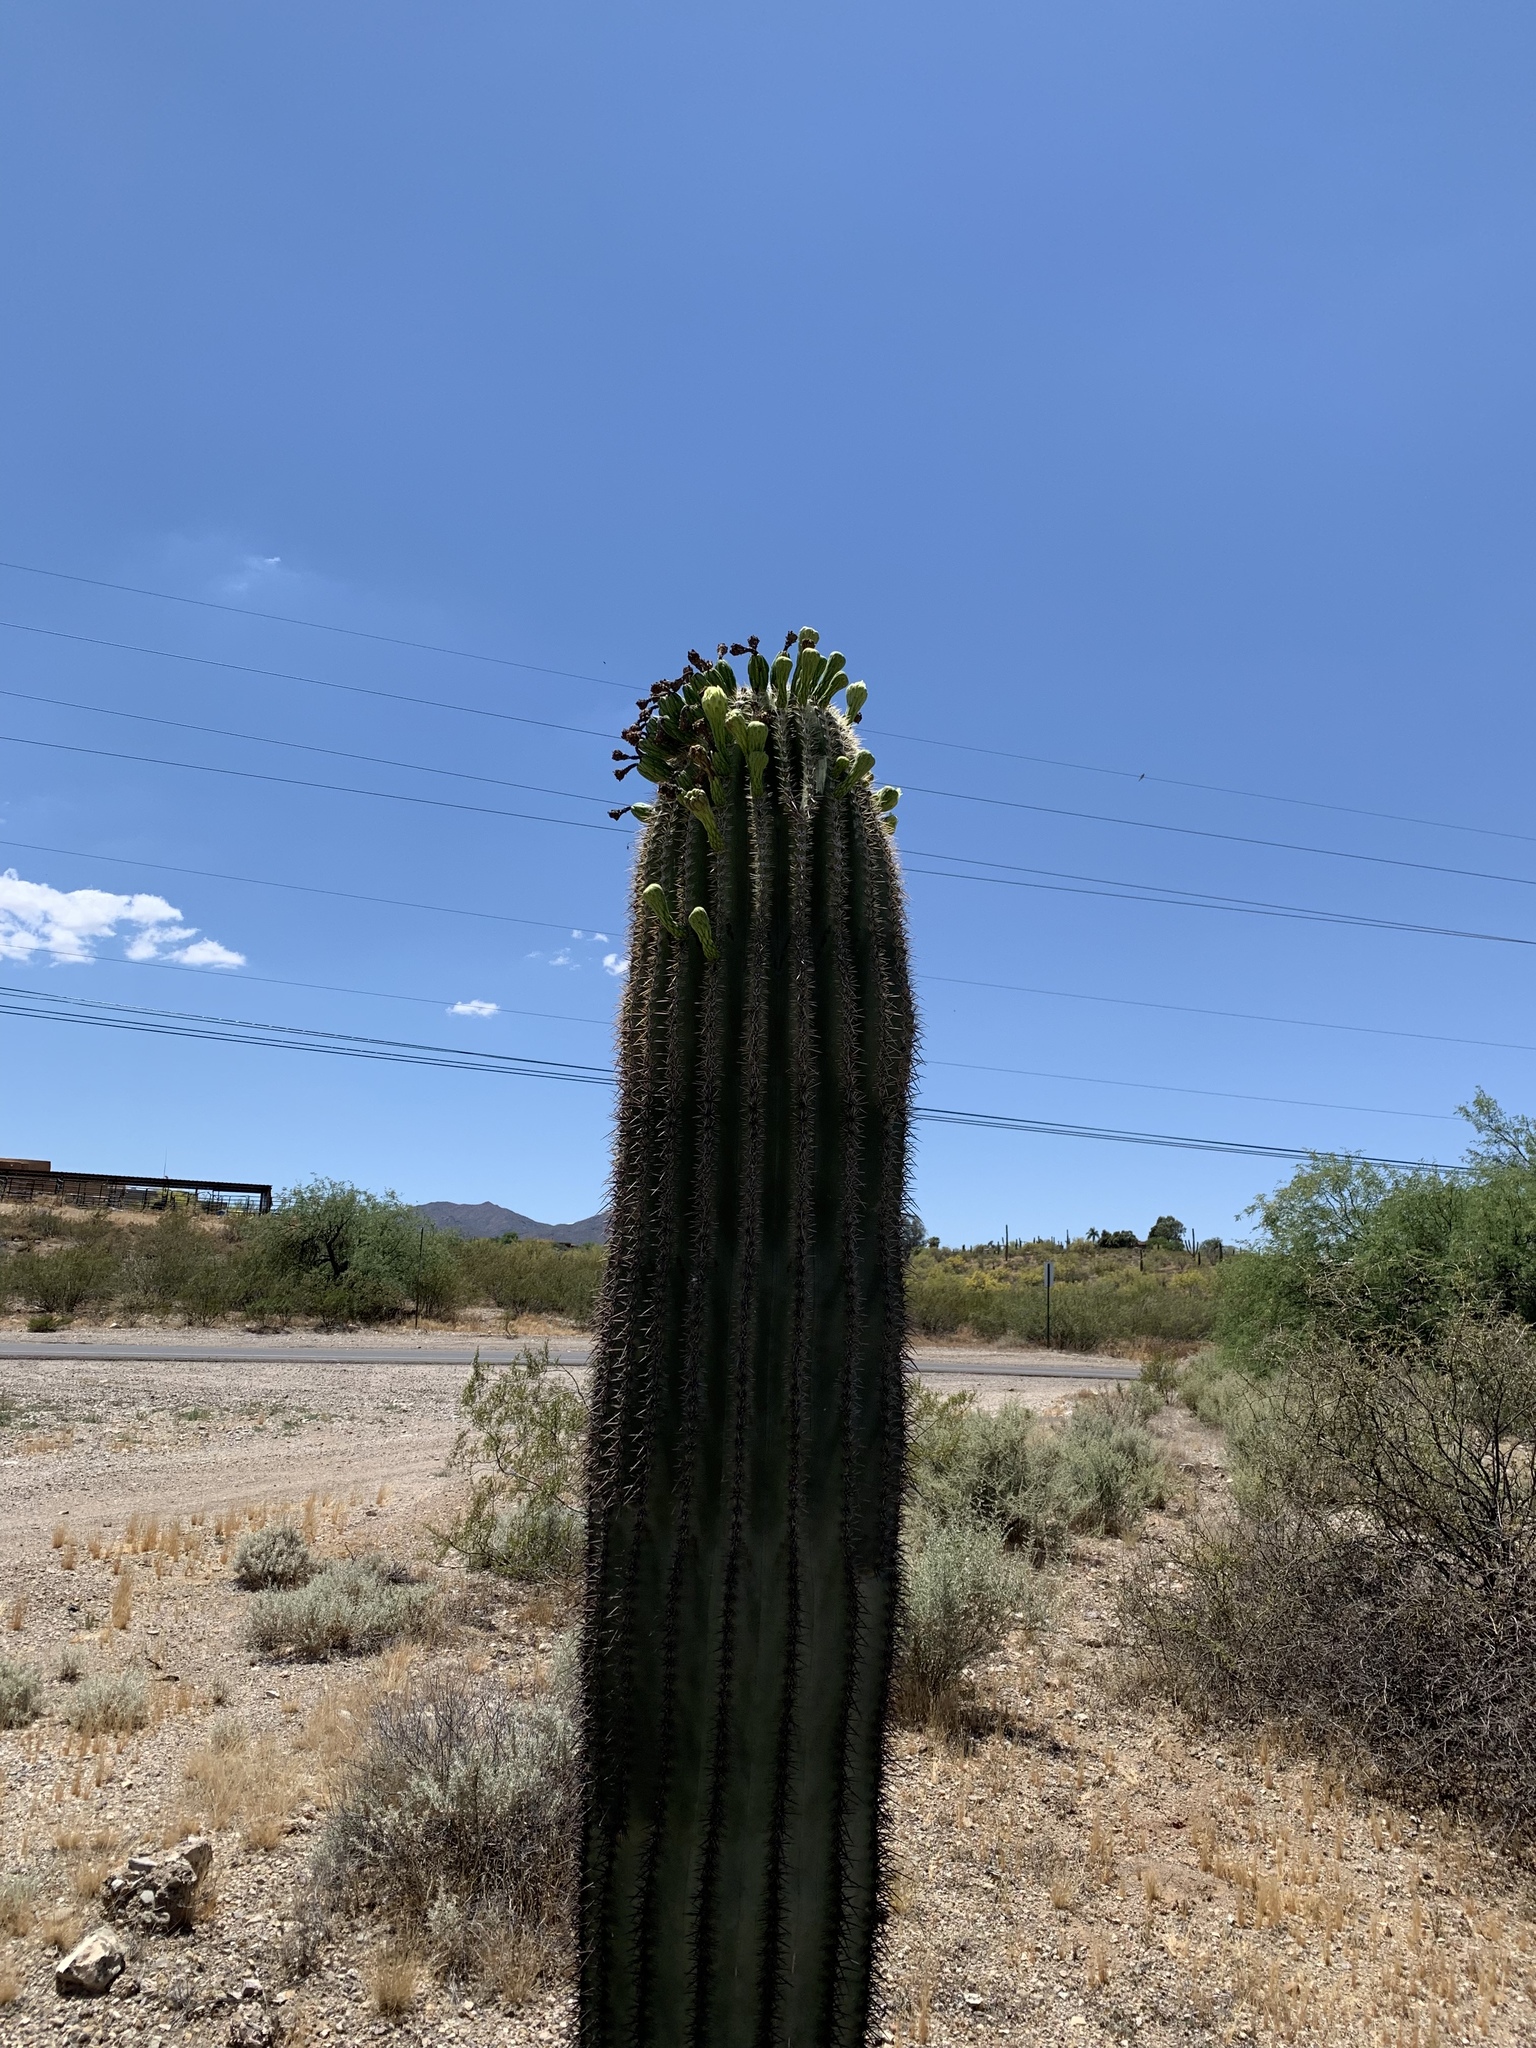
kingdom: Plantae
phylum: Tracheophyta
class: Magnoliopsida
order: Caryophyllales
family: Cactaceae
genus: Carnegiea
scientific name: Carnegiea gigantea
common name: Saguaro
